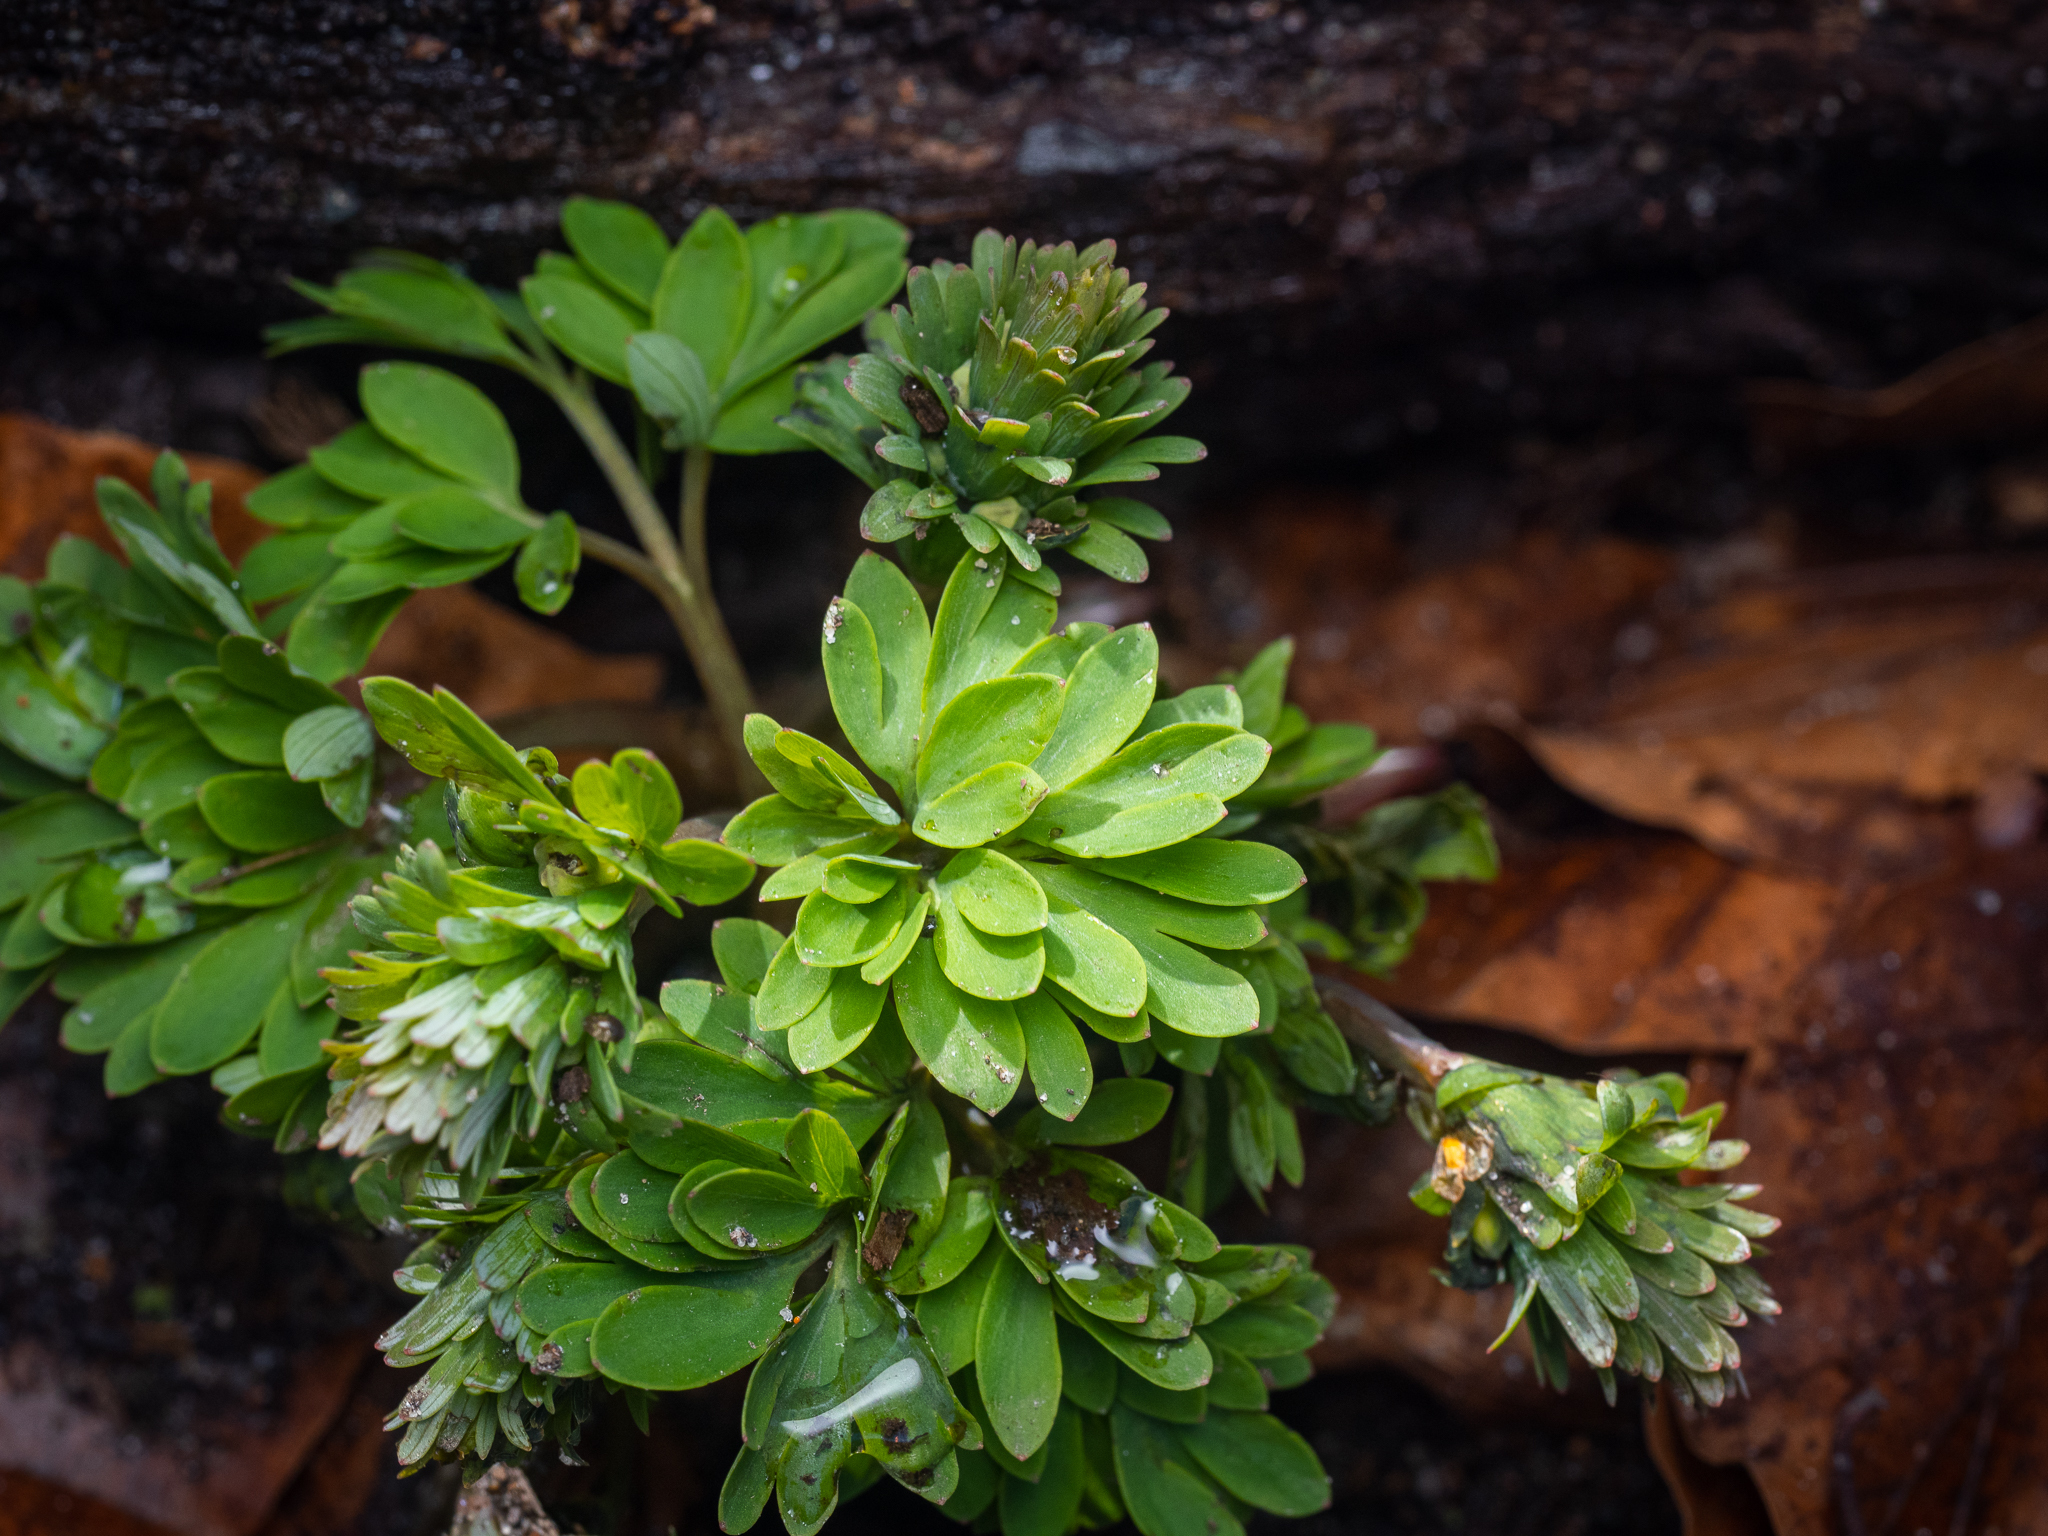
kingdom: Plantae
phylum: Tracheophyta
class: Magnoliopsida
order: Ranunculales
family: Papaveraceae
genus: Corydalis
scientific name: Corydalis solida
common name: Bird-in-a-bush
